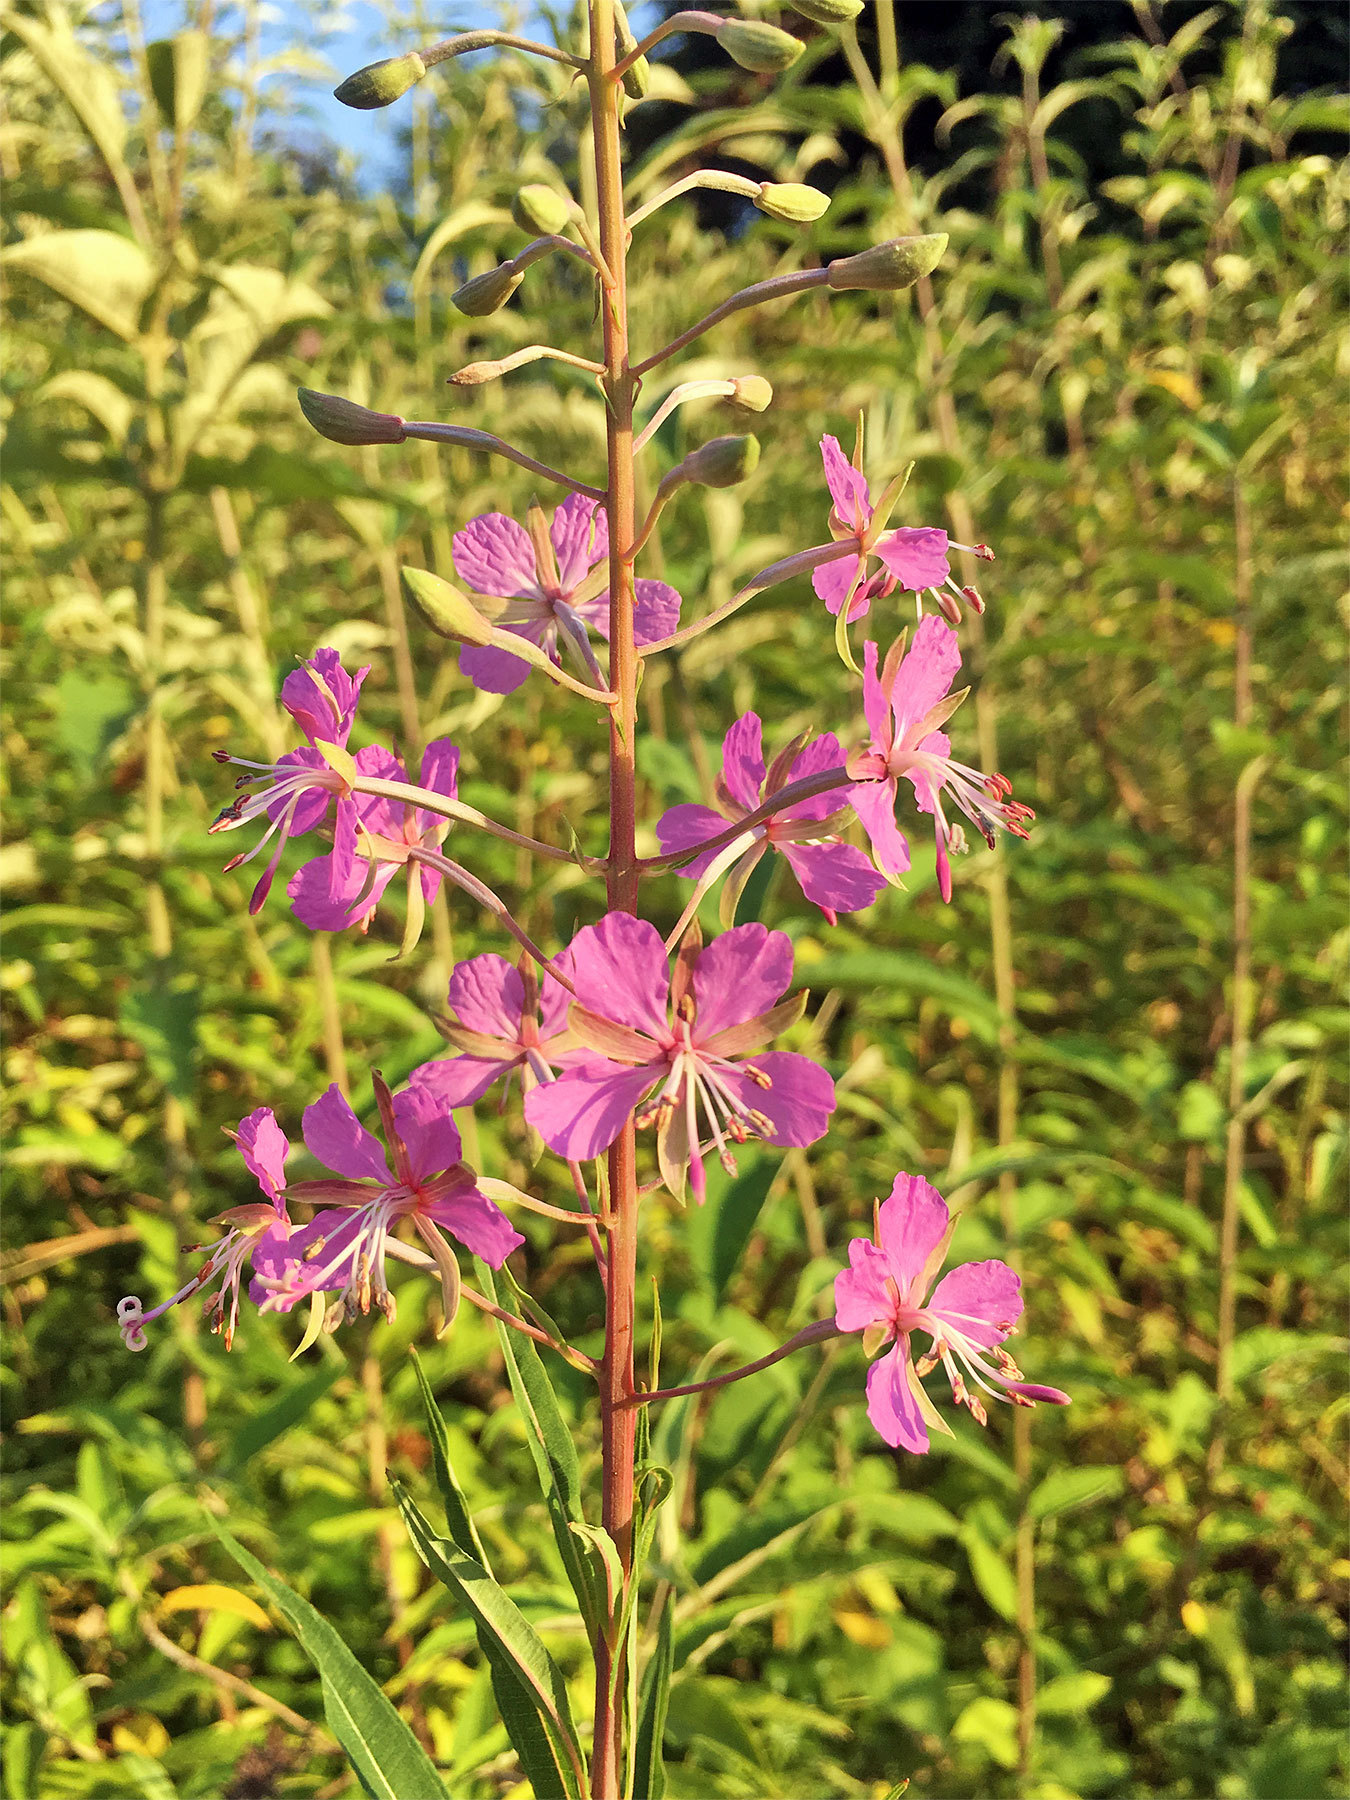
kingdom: Plantae
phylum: Tracheophyta
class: Magnoliopsida
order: Myrtales
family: Onagraceae
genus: Chamaenerion
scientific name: Chamaenerion angustifolium
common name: Fireweed
